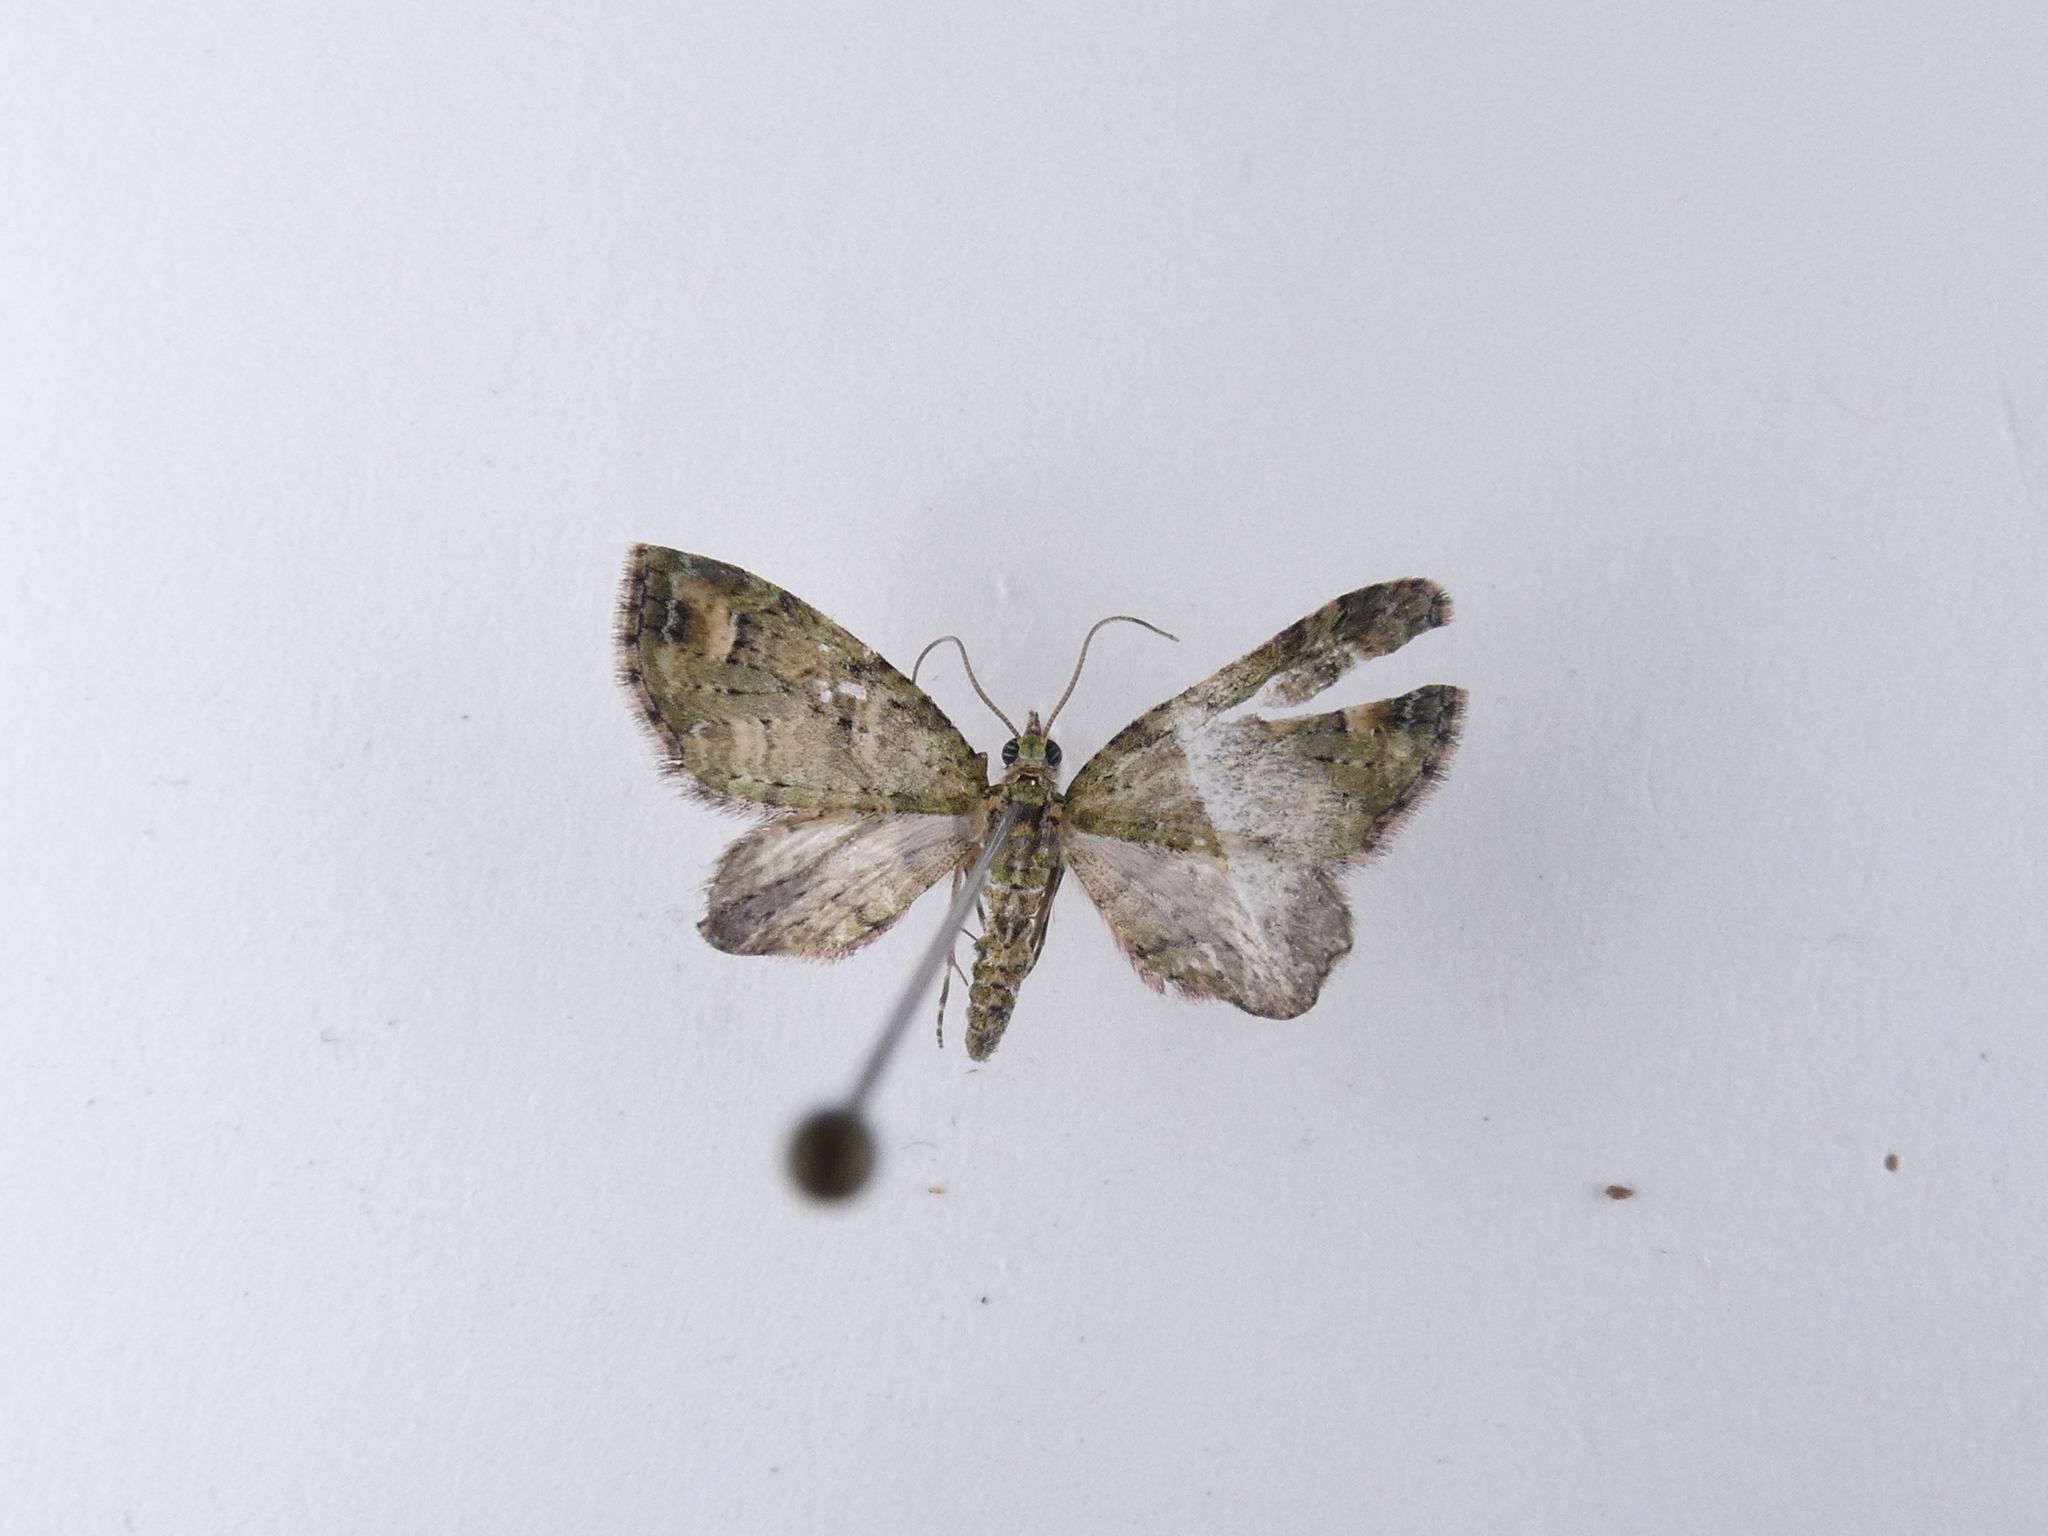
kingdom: Animalia
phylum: Arthropoda
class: Insecta
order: Lepidoptera
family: Geometridae
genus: Idaea
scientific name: Idaea mutanda
